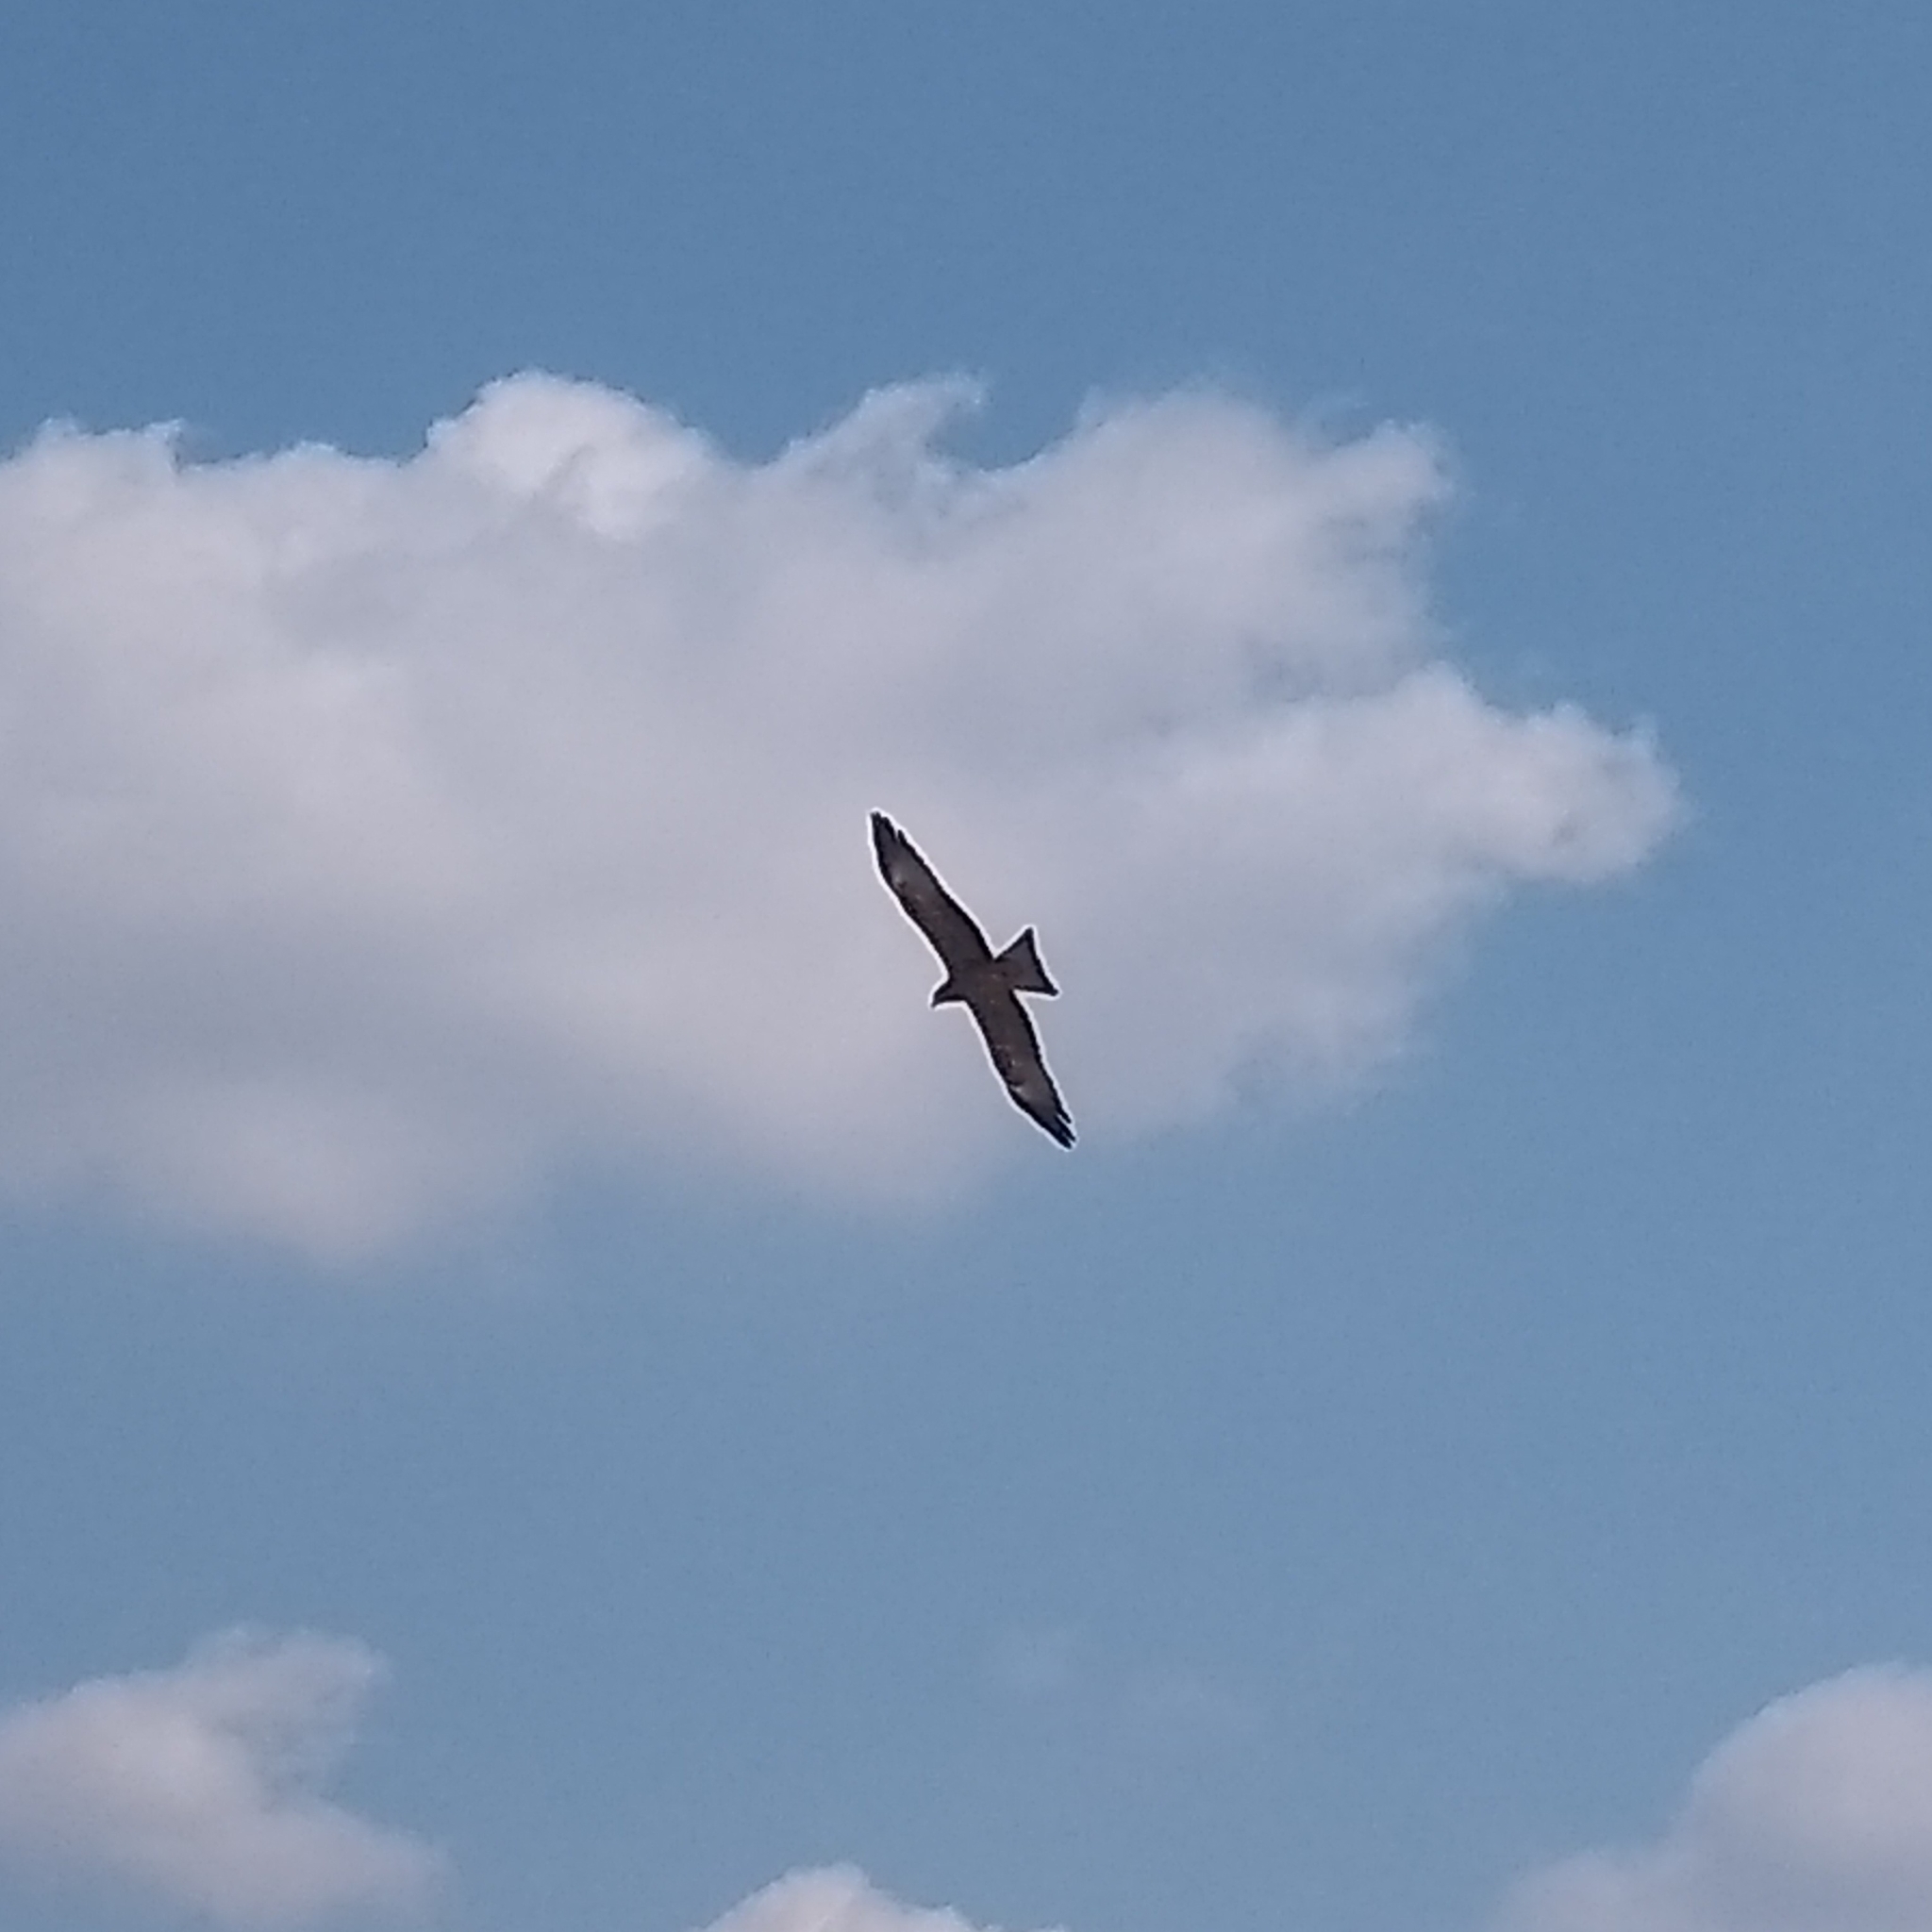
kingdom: Animalia
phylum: Chordata
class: Aves
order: Accipitriformes
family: Accipitridae
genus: Milvus
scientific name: Milvus migrans
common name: Black kite
